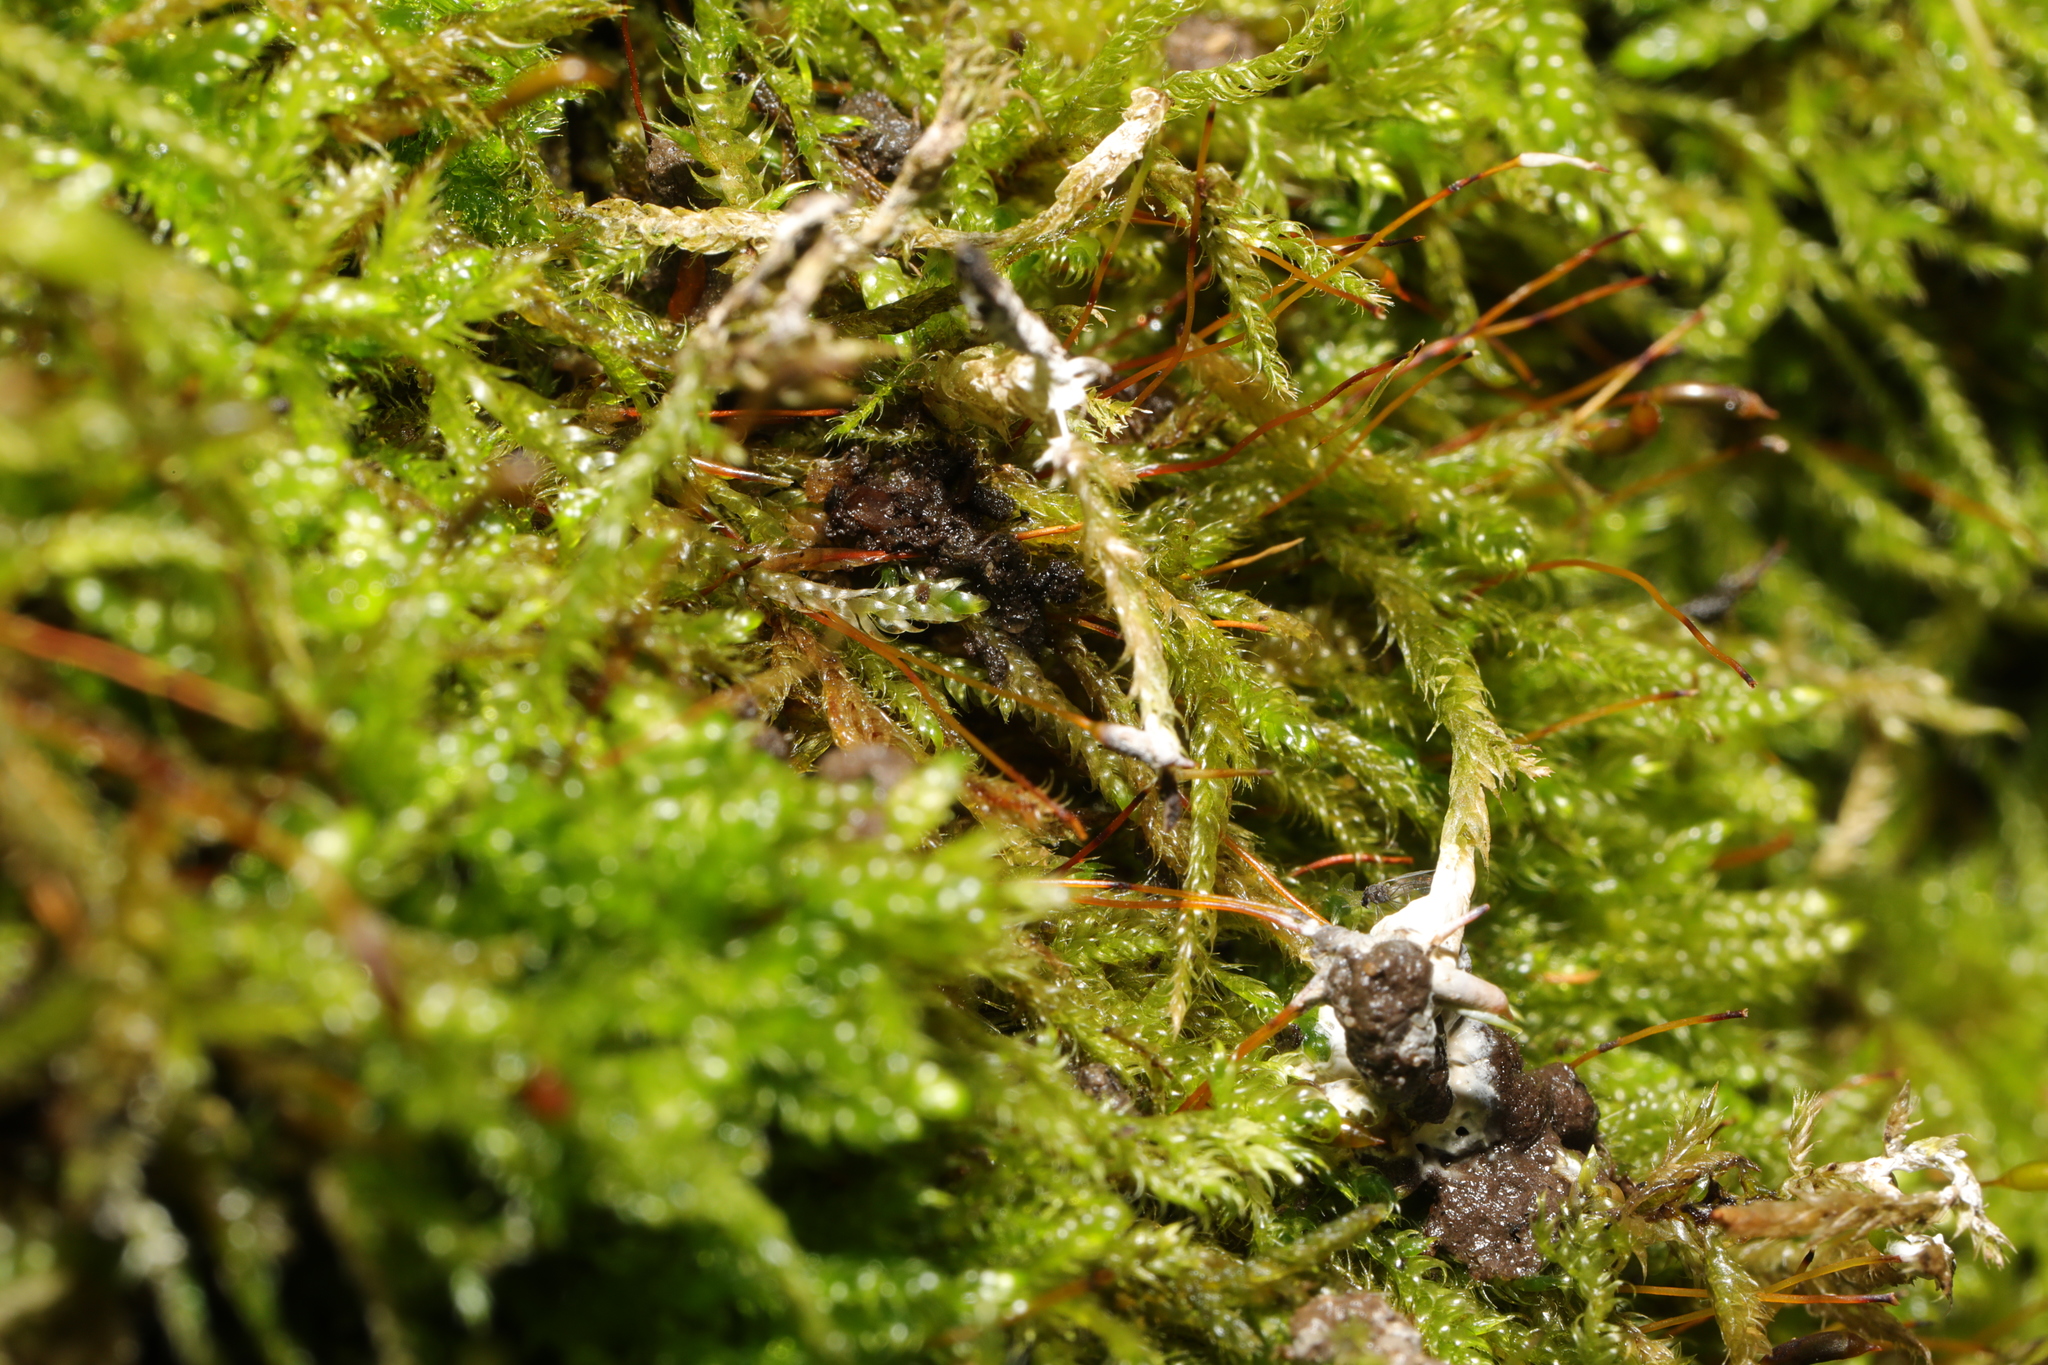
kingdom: Plantae
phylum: Bryophyta
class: Bryopsida
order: Hypnales
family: Hypnaceae
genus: Hypnum
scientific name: Hypnum cupressiforme
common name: Cypress-leaved plait-moss
